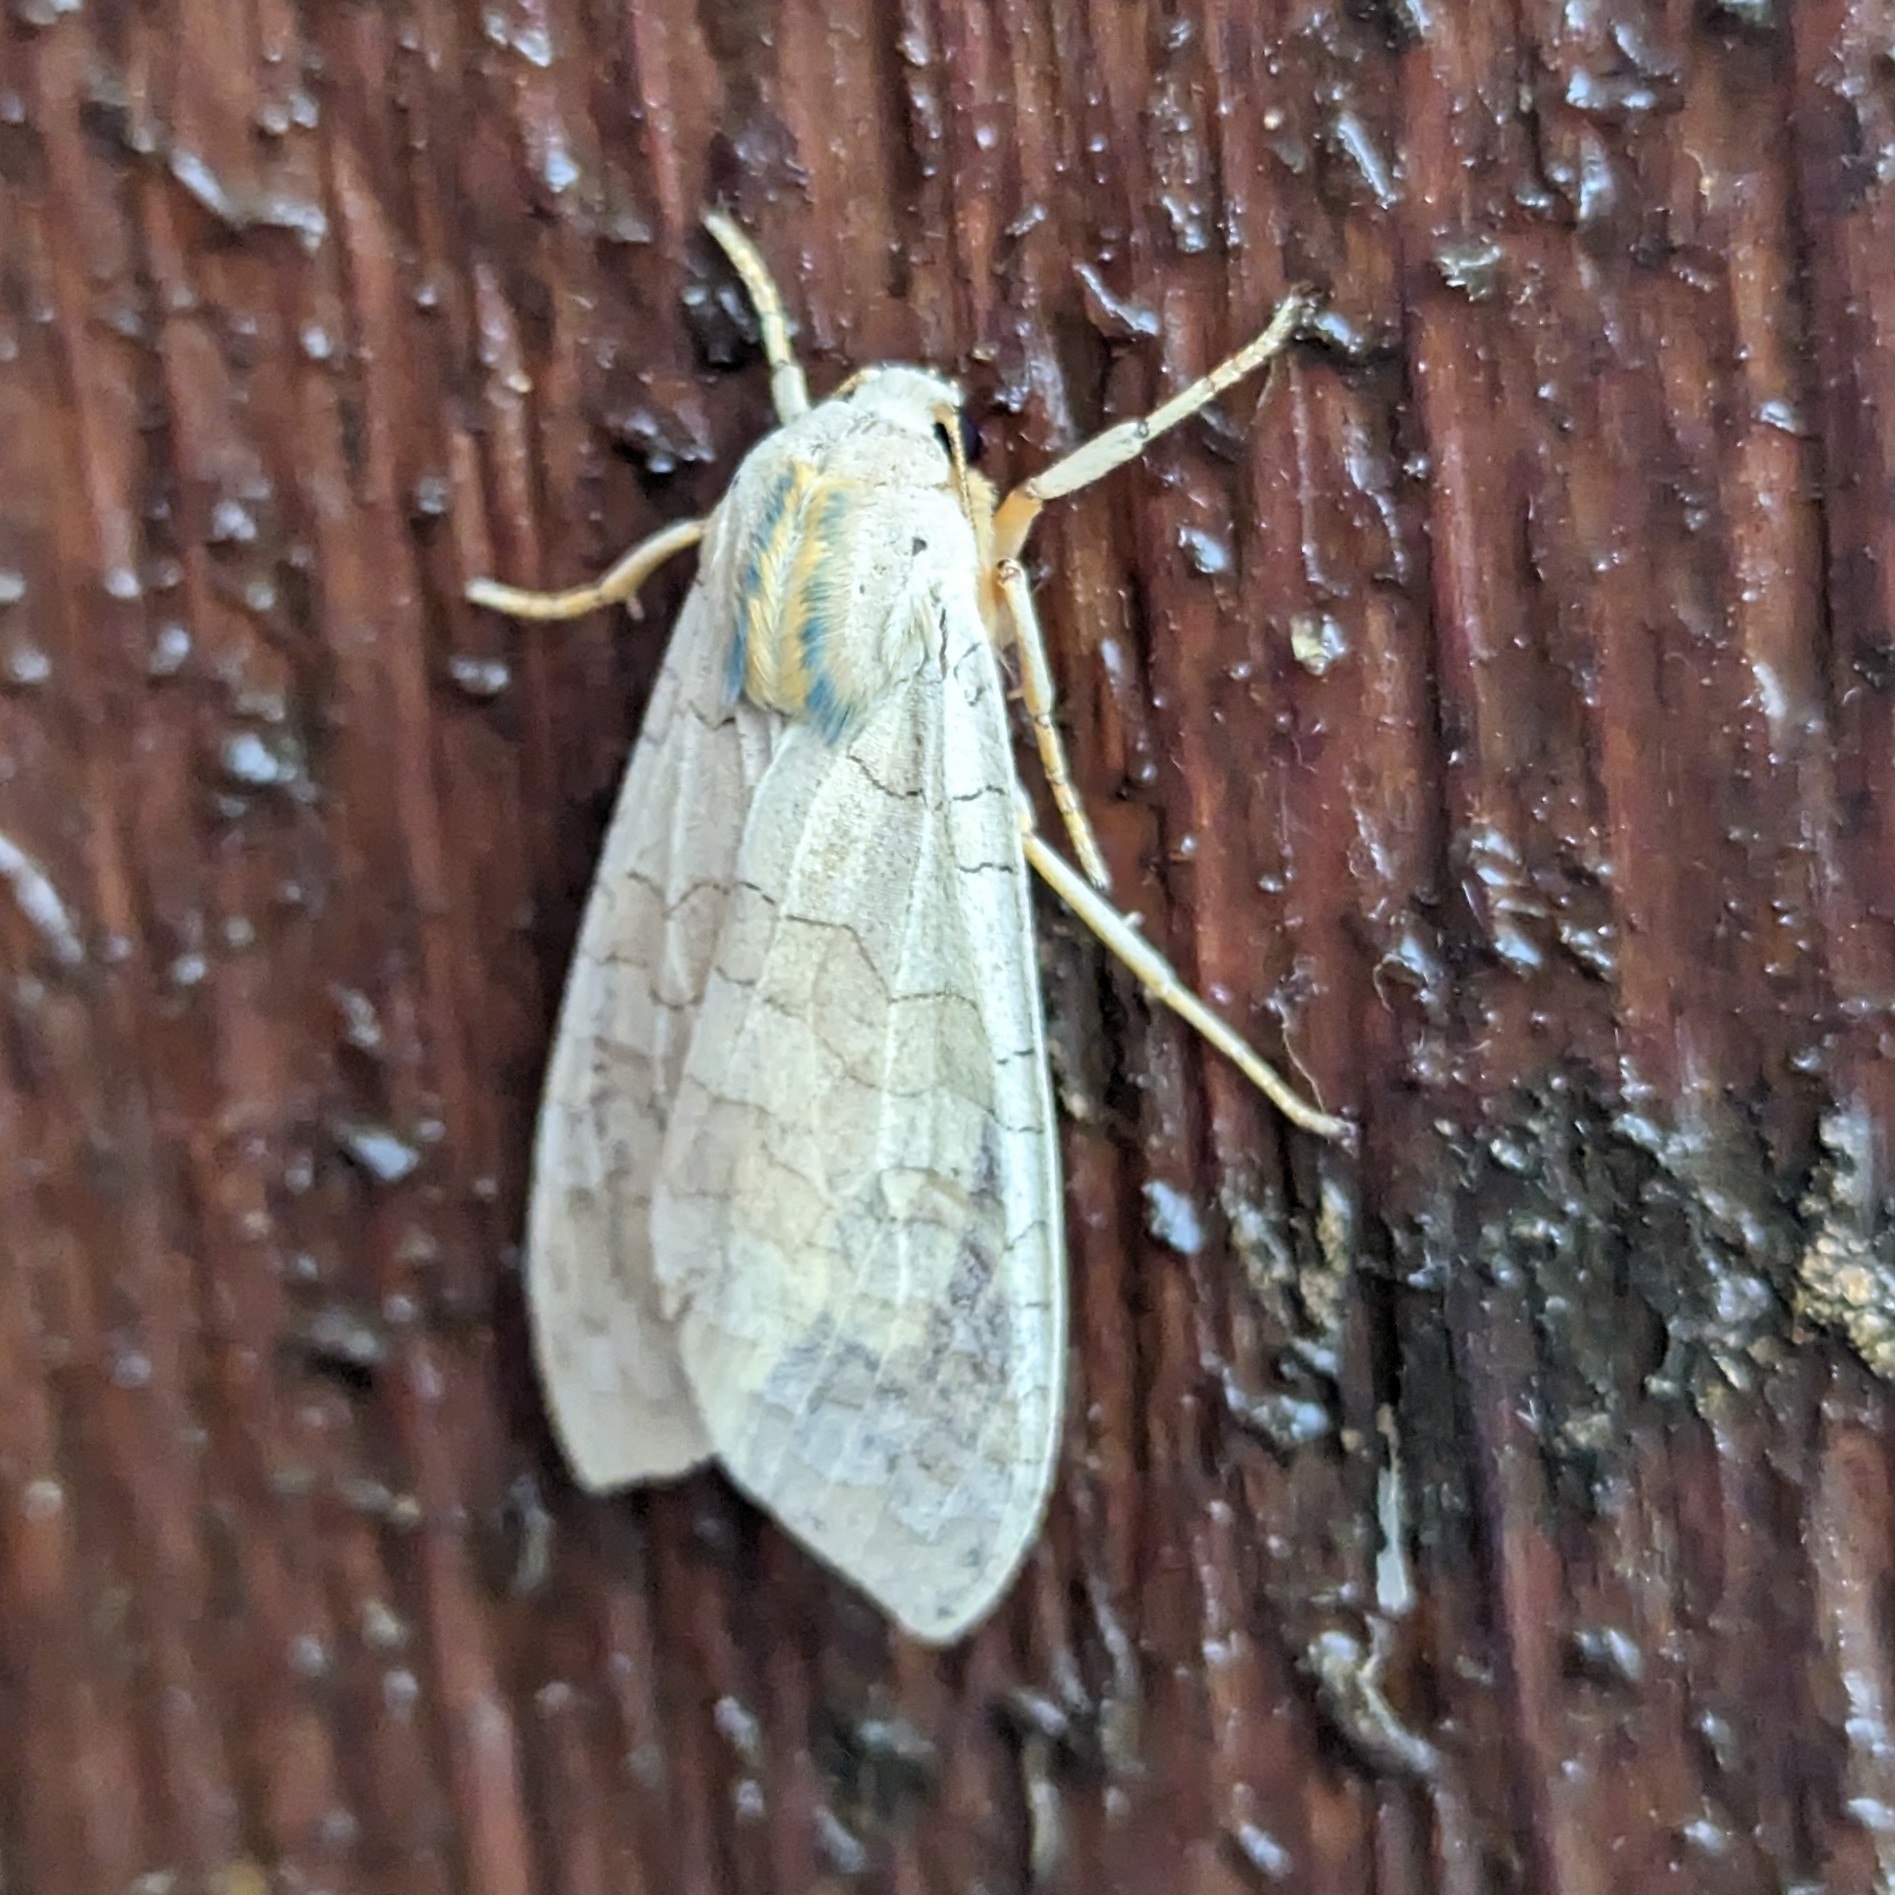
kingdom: Animalia
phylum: Arthropoda
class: Insecta
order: Lepidoptera
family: Erebidae
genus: Halysidota
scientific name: Halysidota
